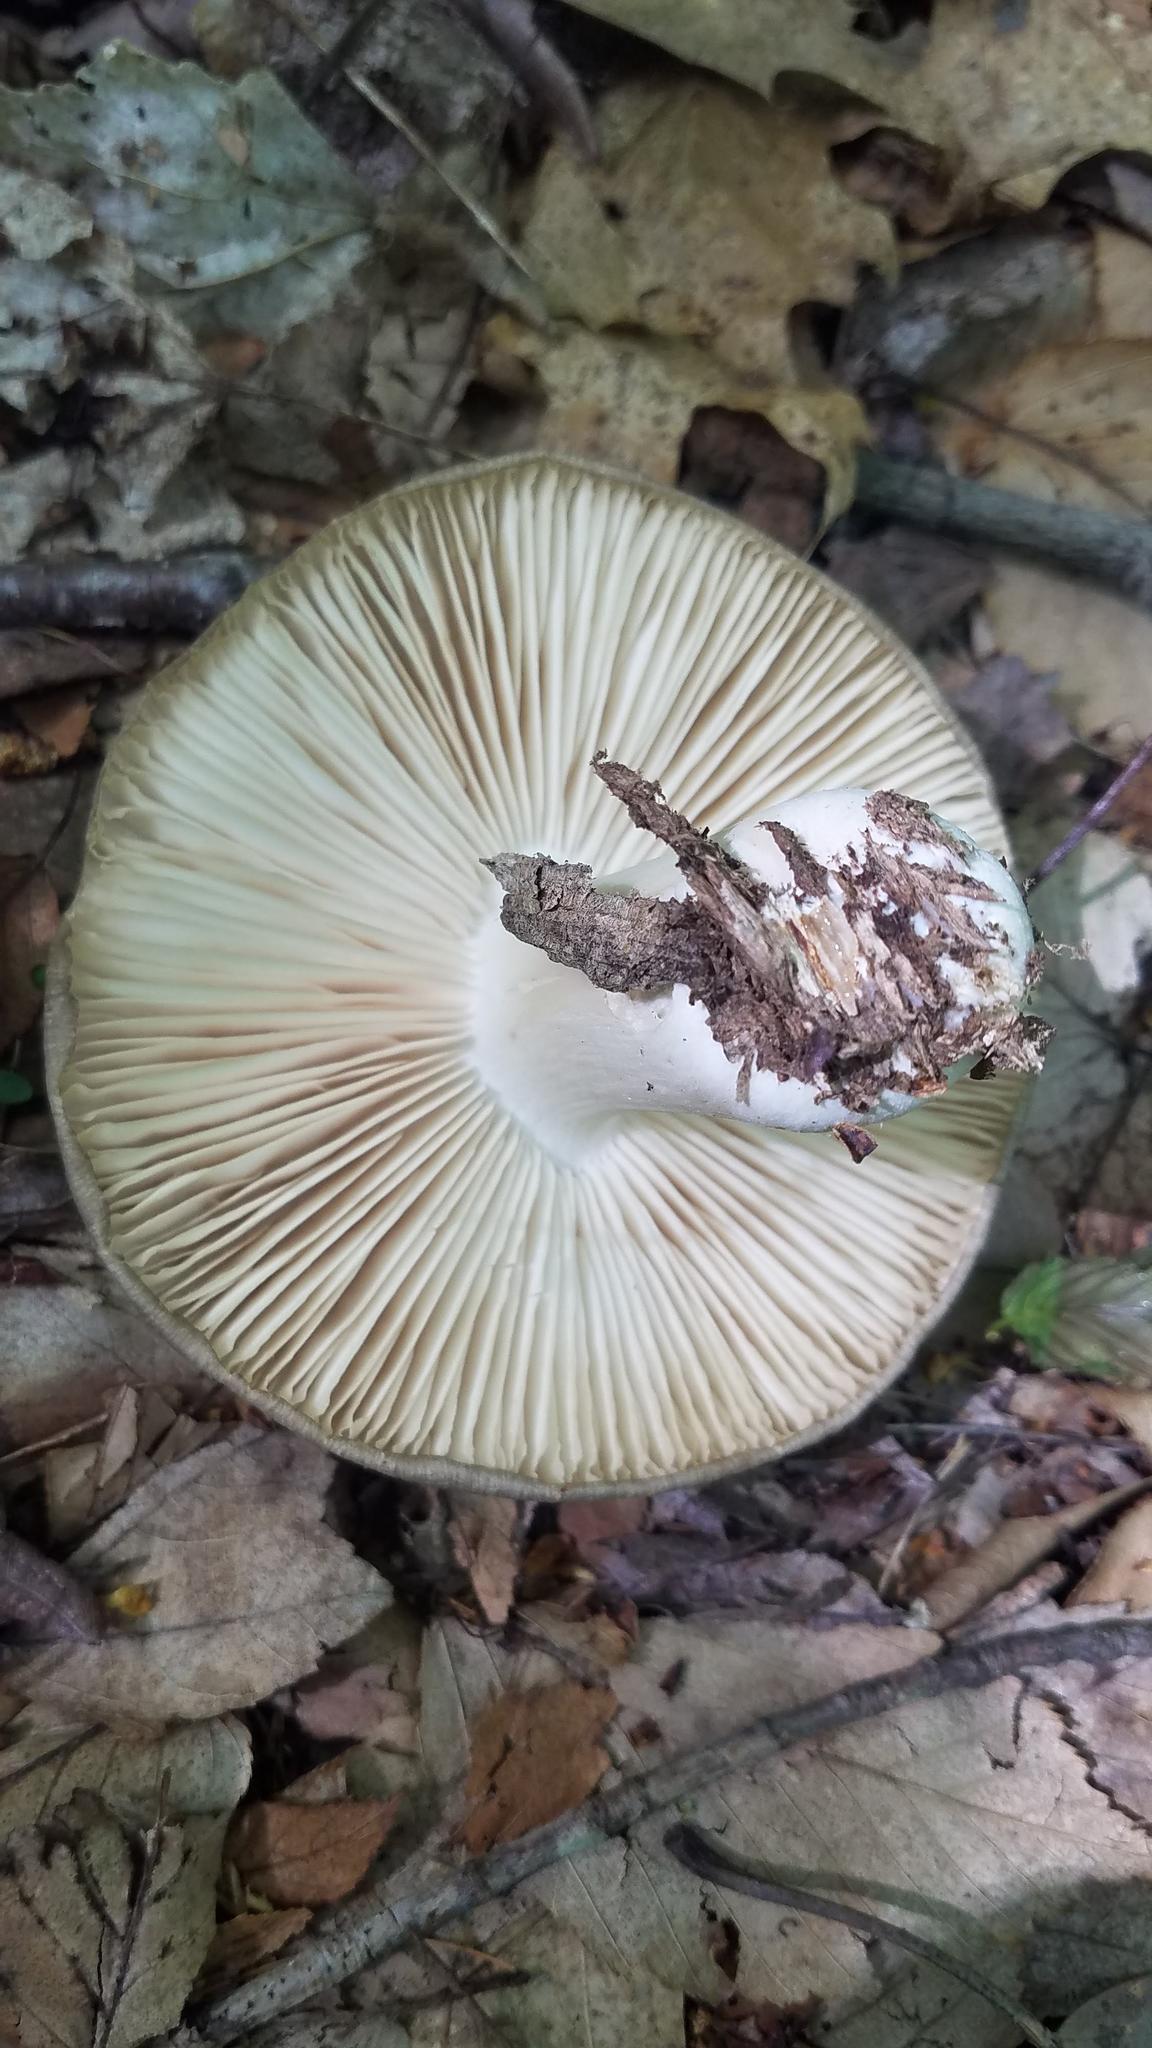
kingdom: Fungi
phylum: Basidiomycota
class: Agaricomycetes
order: Agaricales
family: Tricholomataceae
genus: Megacollybia
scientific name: Megacollybia rodmanii
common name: Eastern american platterful mushroom
